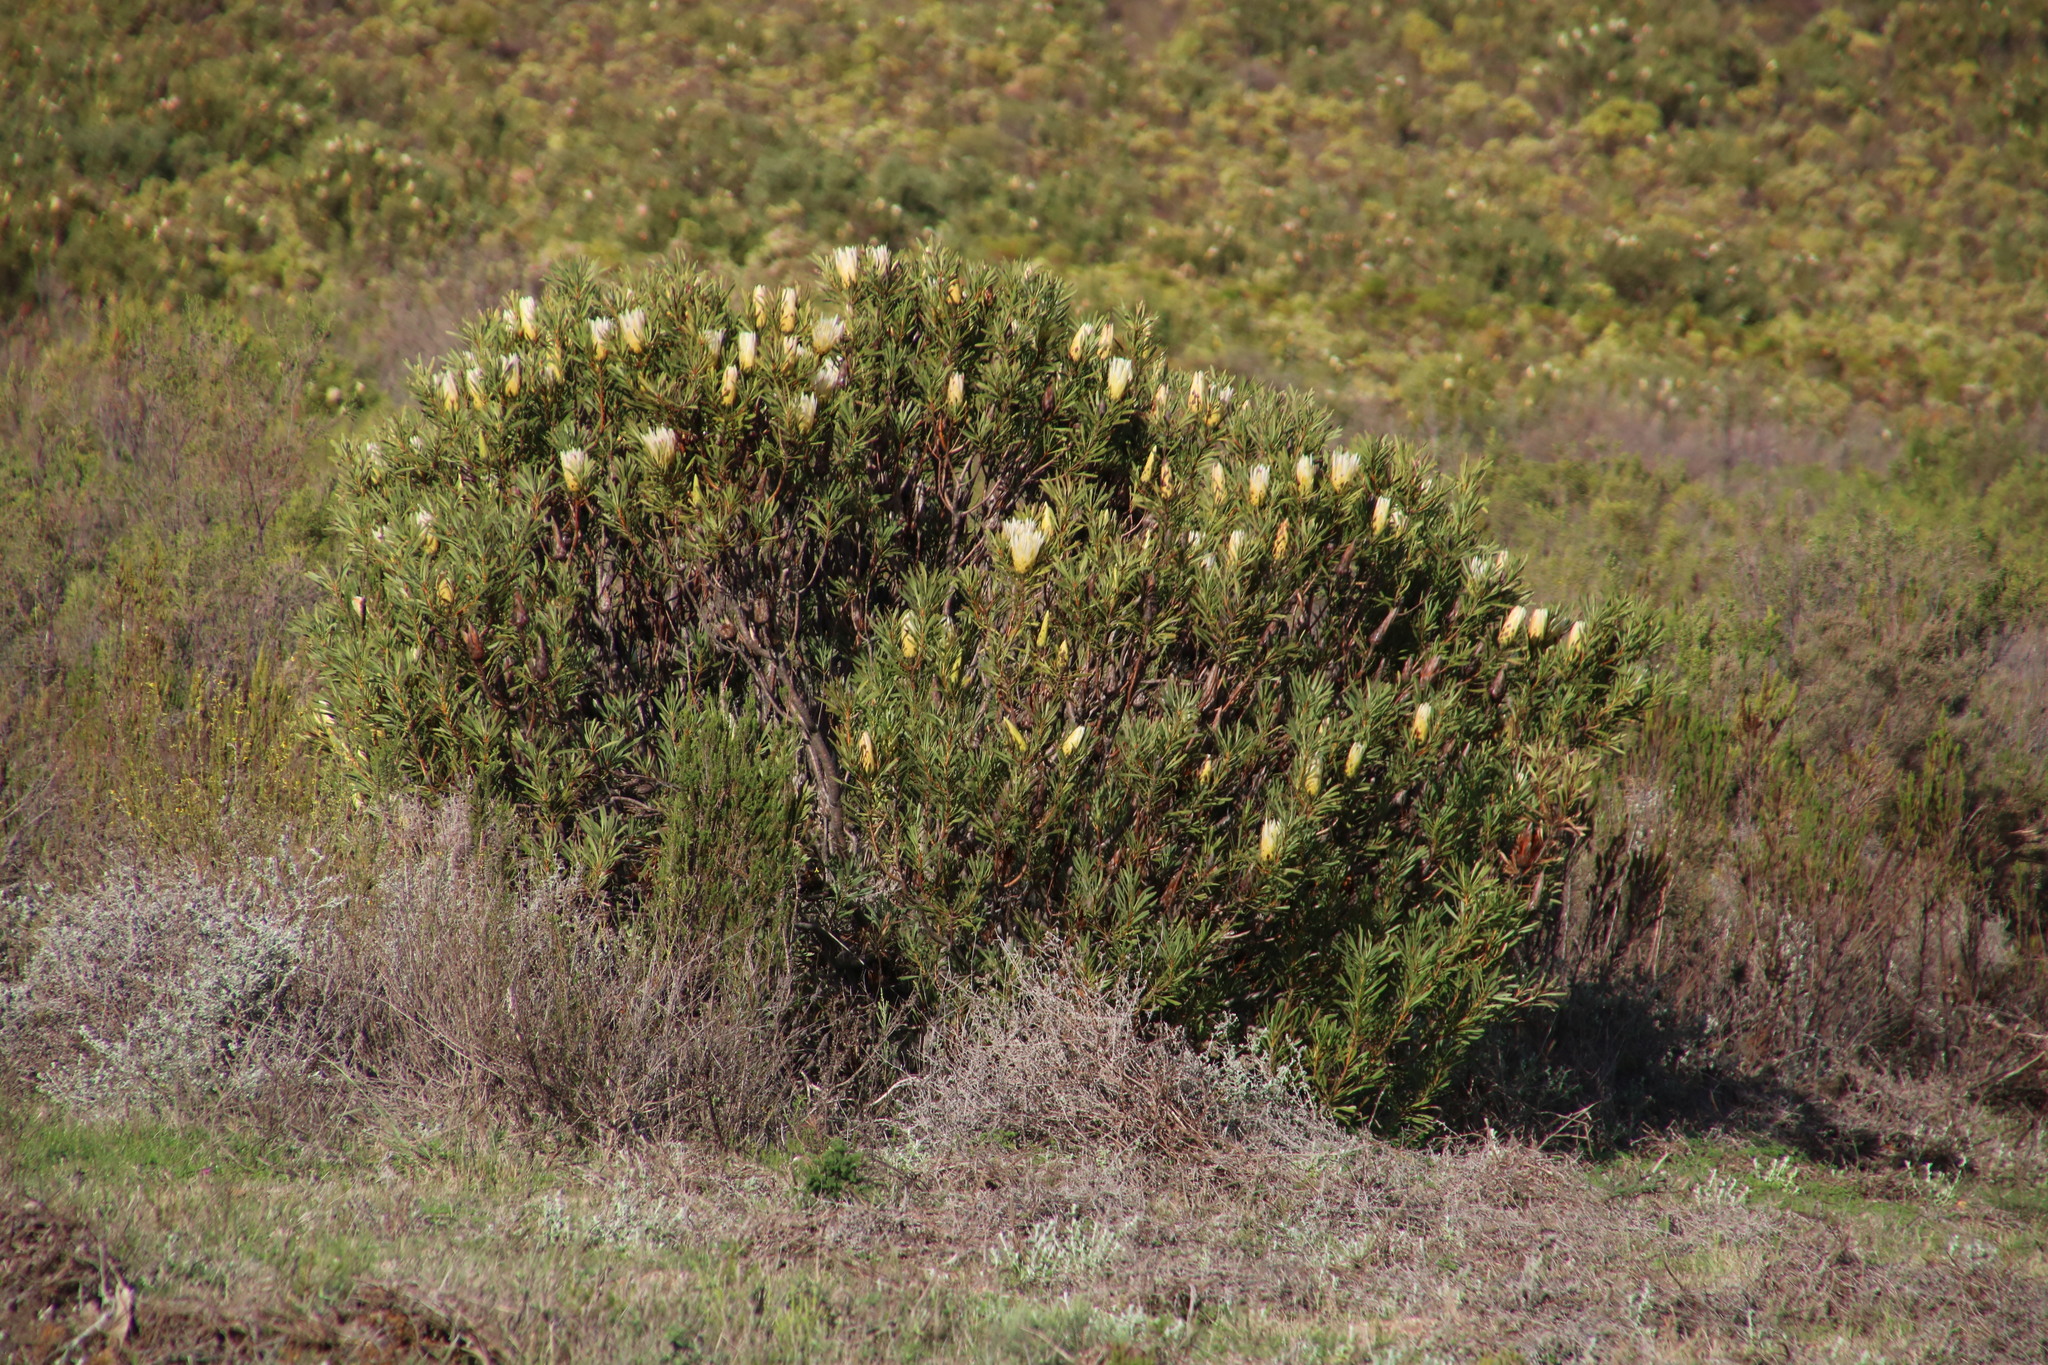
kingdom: Plantae
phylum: Tracheophyta
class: Magnoliopsida
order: Proteales
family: Proteaceae
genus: Protea
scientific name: Protea repens
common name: Sugarbush
